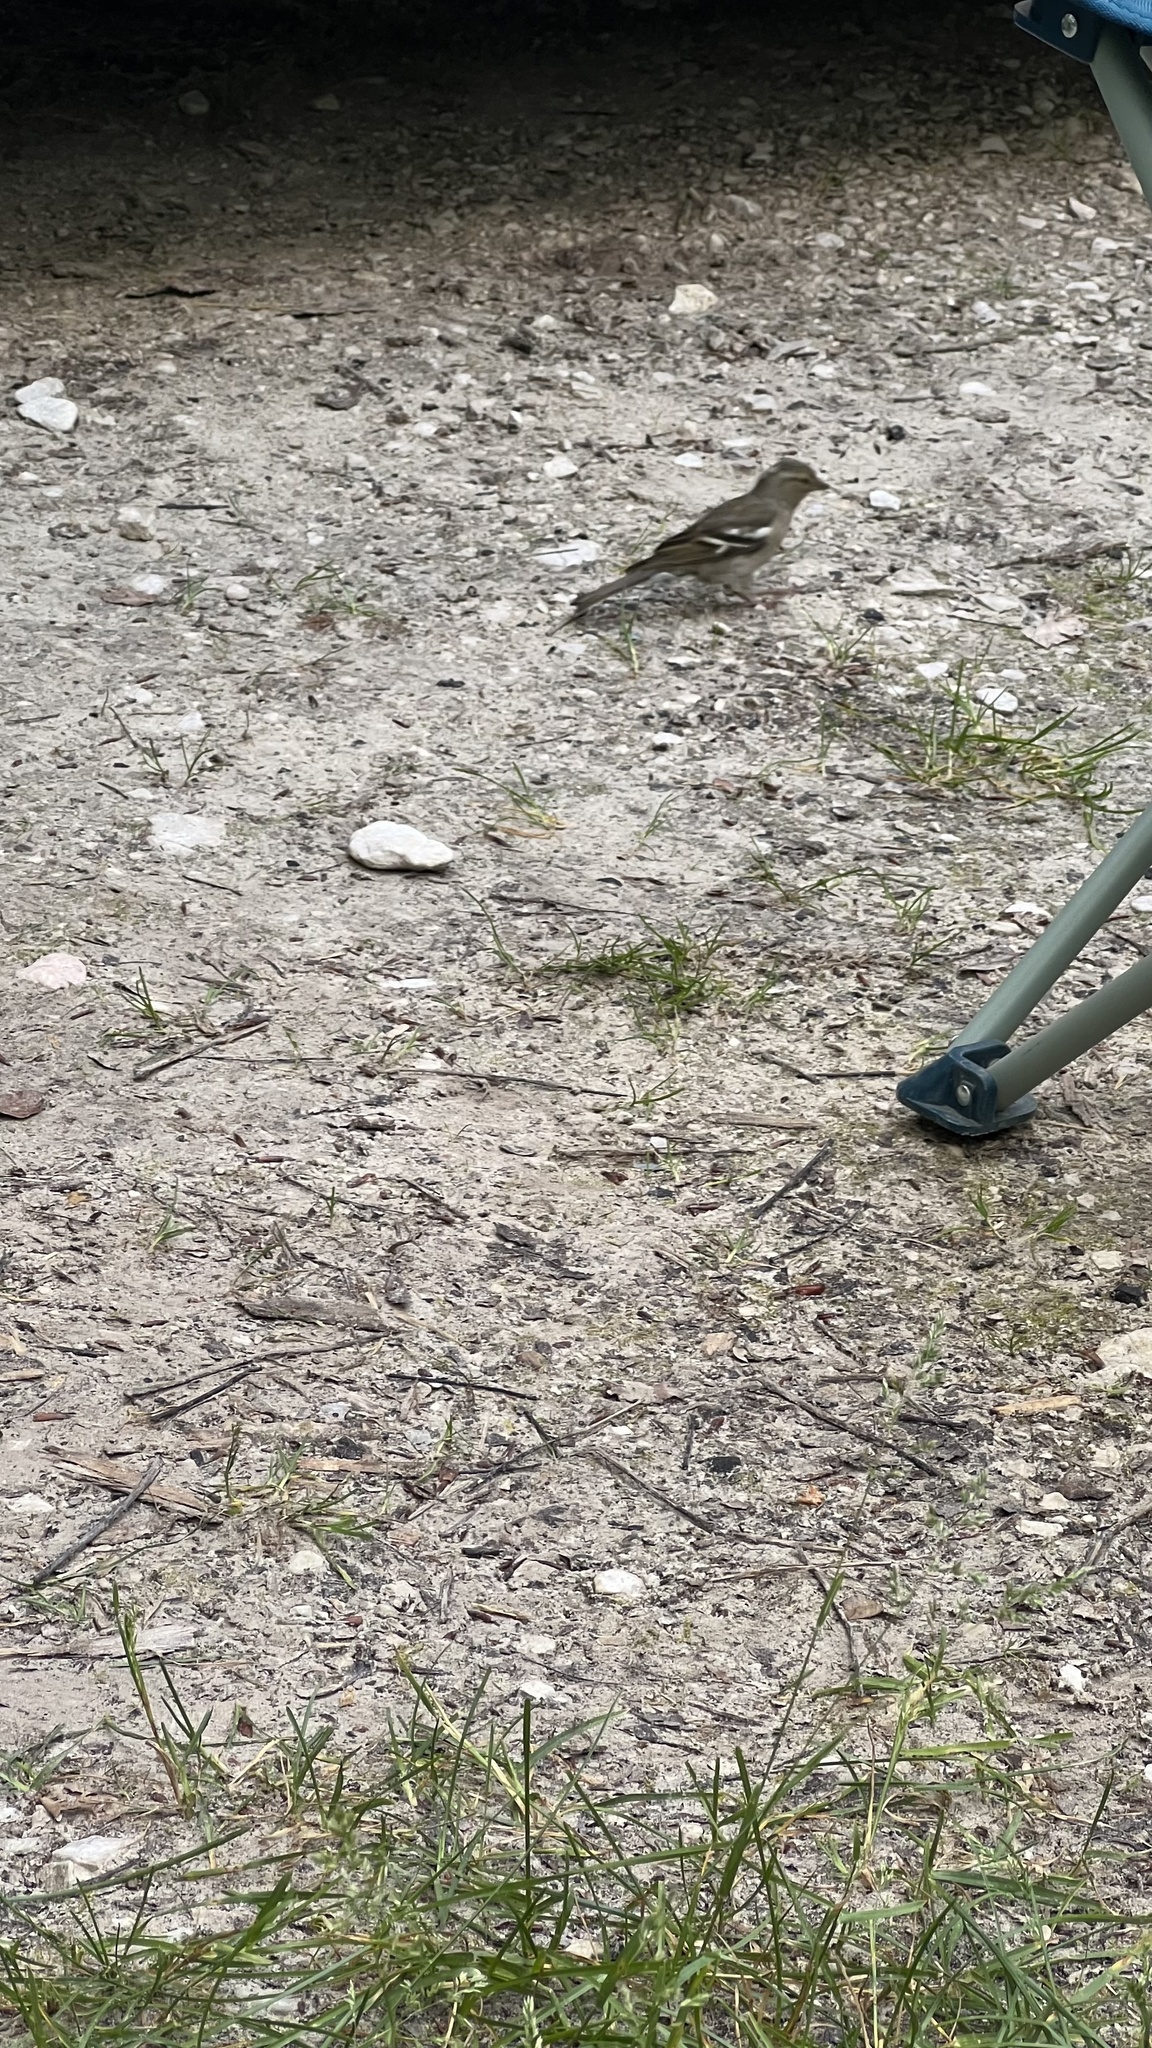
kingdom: Animalia
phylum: Chordata
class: Aves
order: Passeriformes
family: Fringillidae
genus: Fringilla
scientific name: Fringilla coelebs
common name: Common chaffinch
